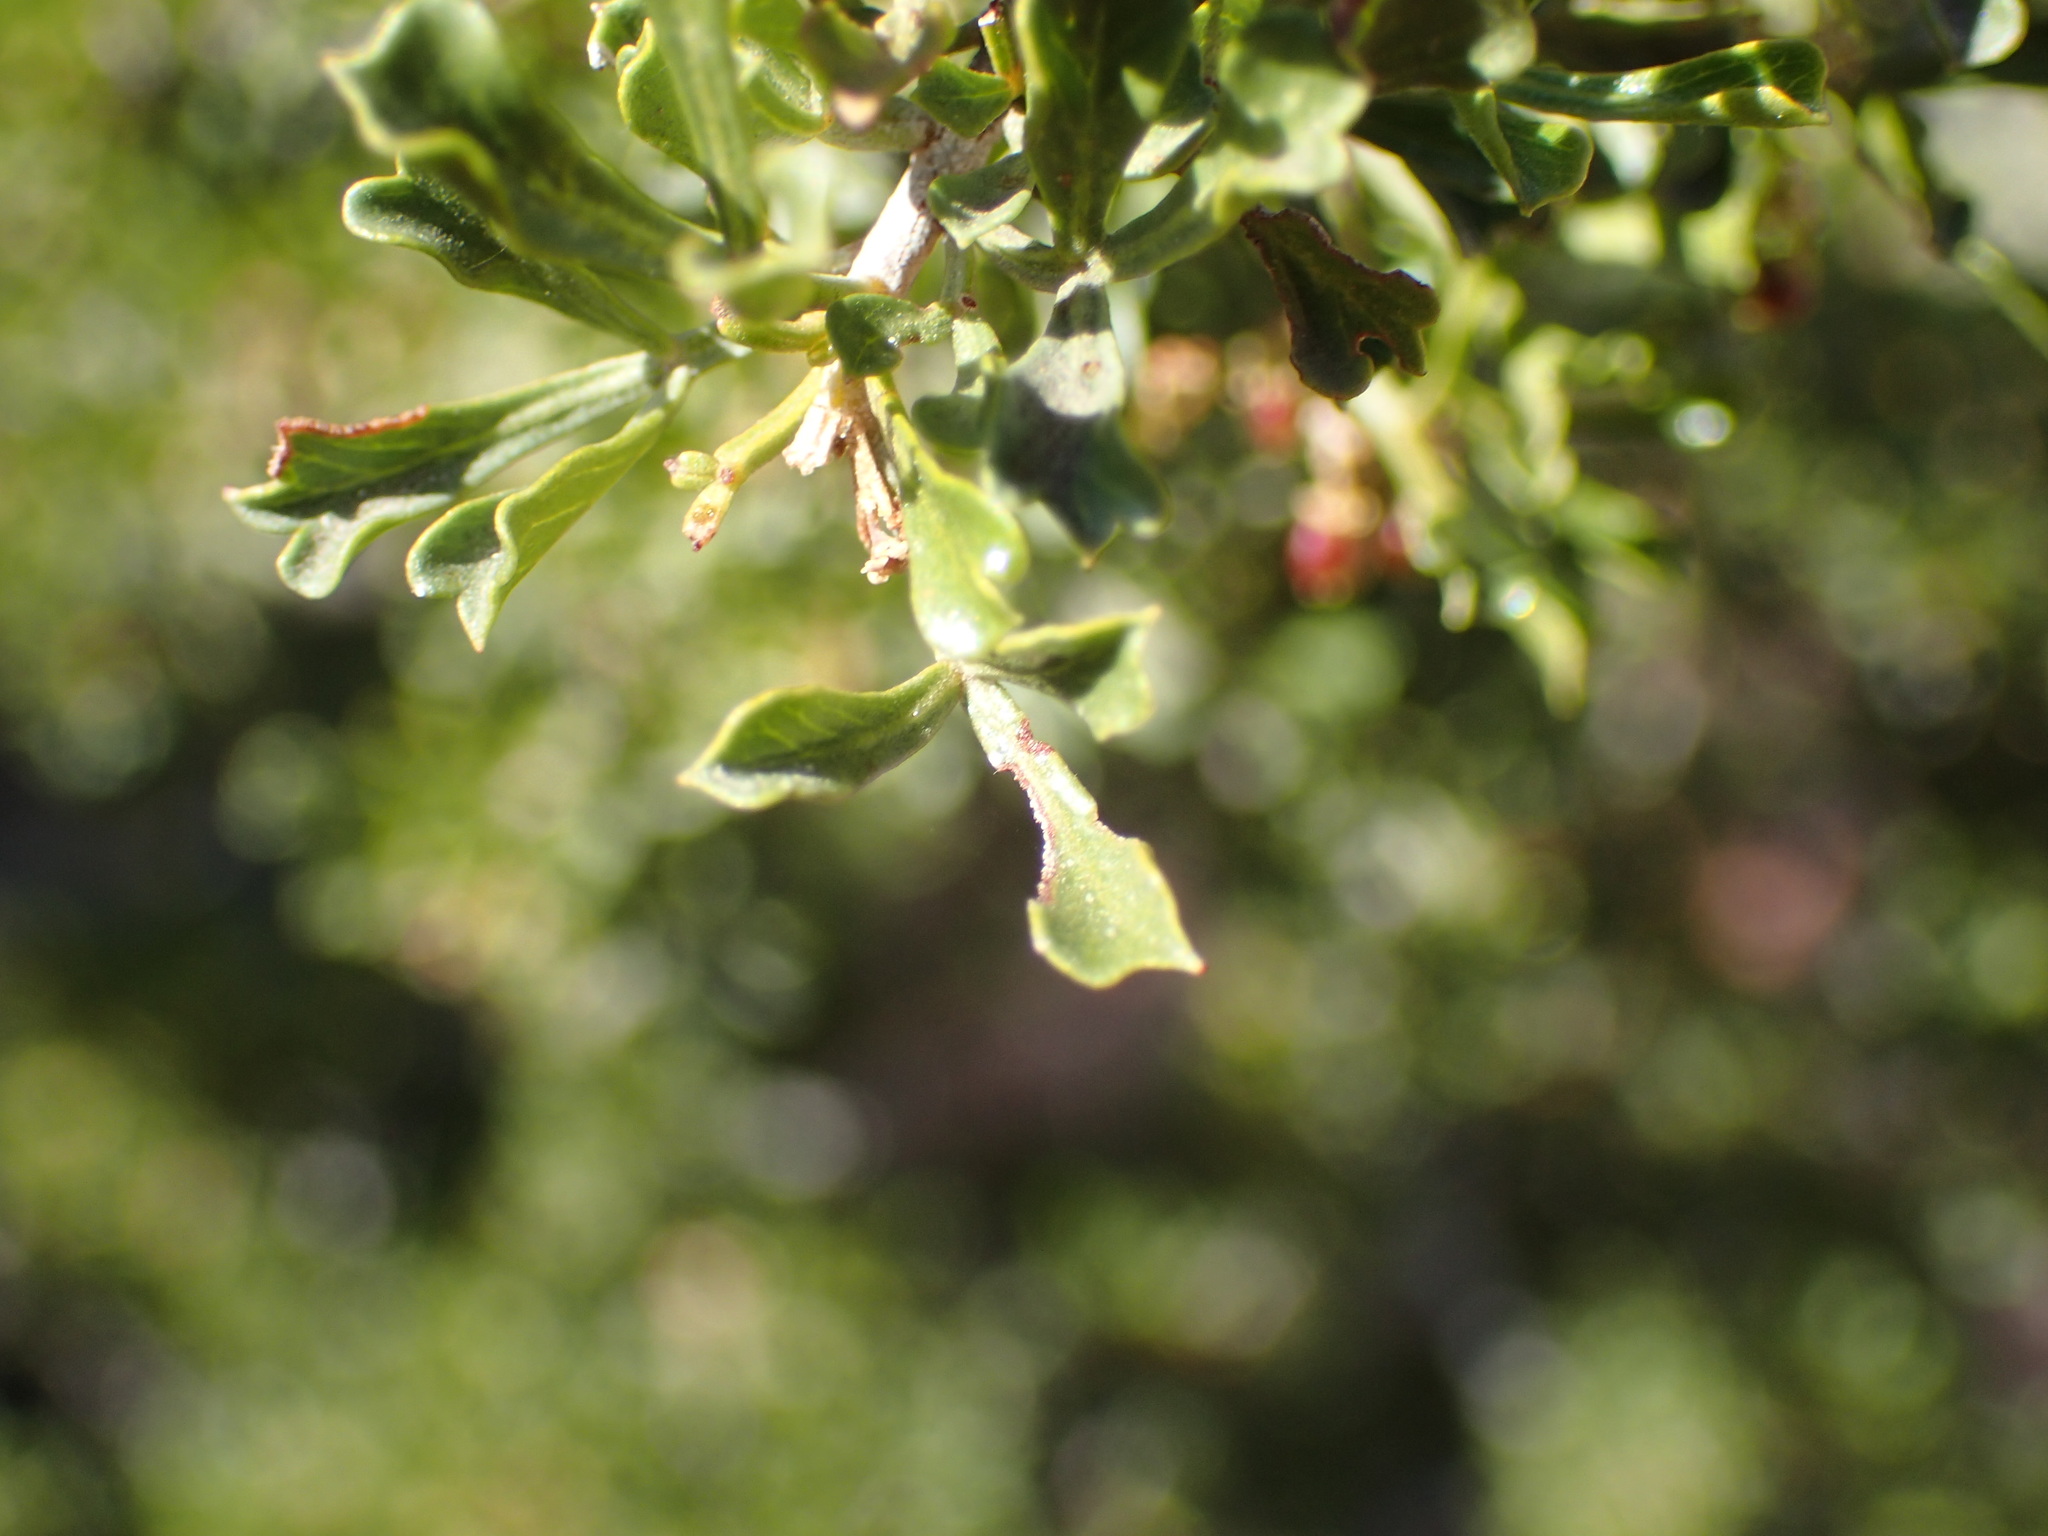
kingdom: Plantae
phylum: Tracheophyta
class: Magnoliopsida
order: Sapindales
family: Anacardiaceae
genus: Searsia
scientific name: Searsia burchellii
